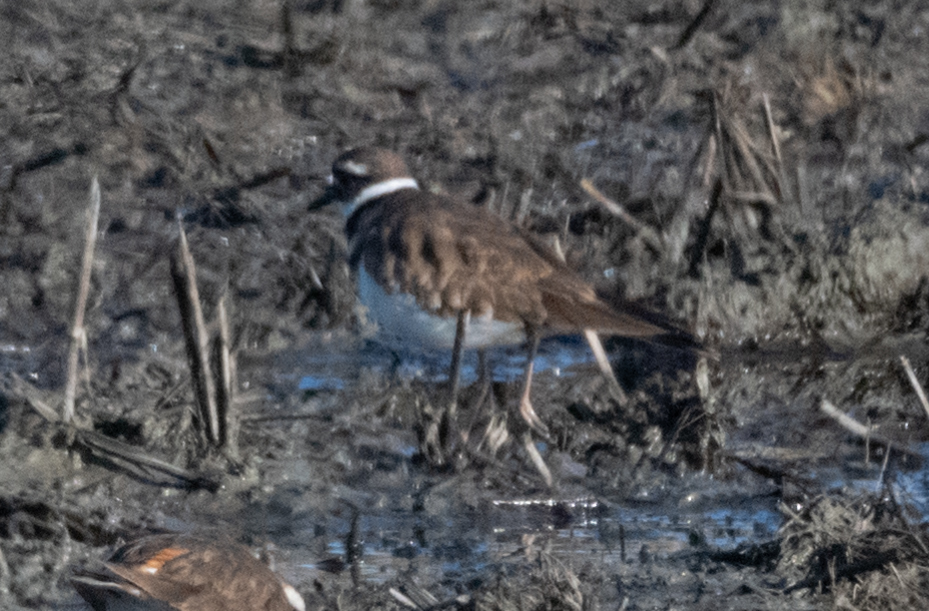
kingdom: Animalia
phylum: Chordata
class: Aves
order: Charadriiformes
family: Charadriidae
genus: Charadrius
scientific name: Charadrius vociferus
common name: Killdeer
